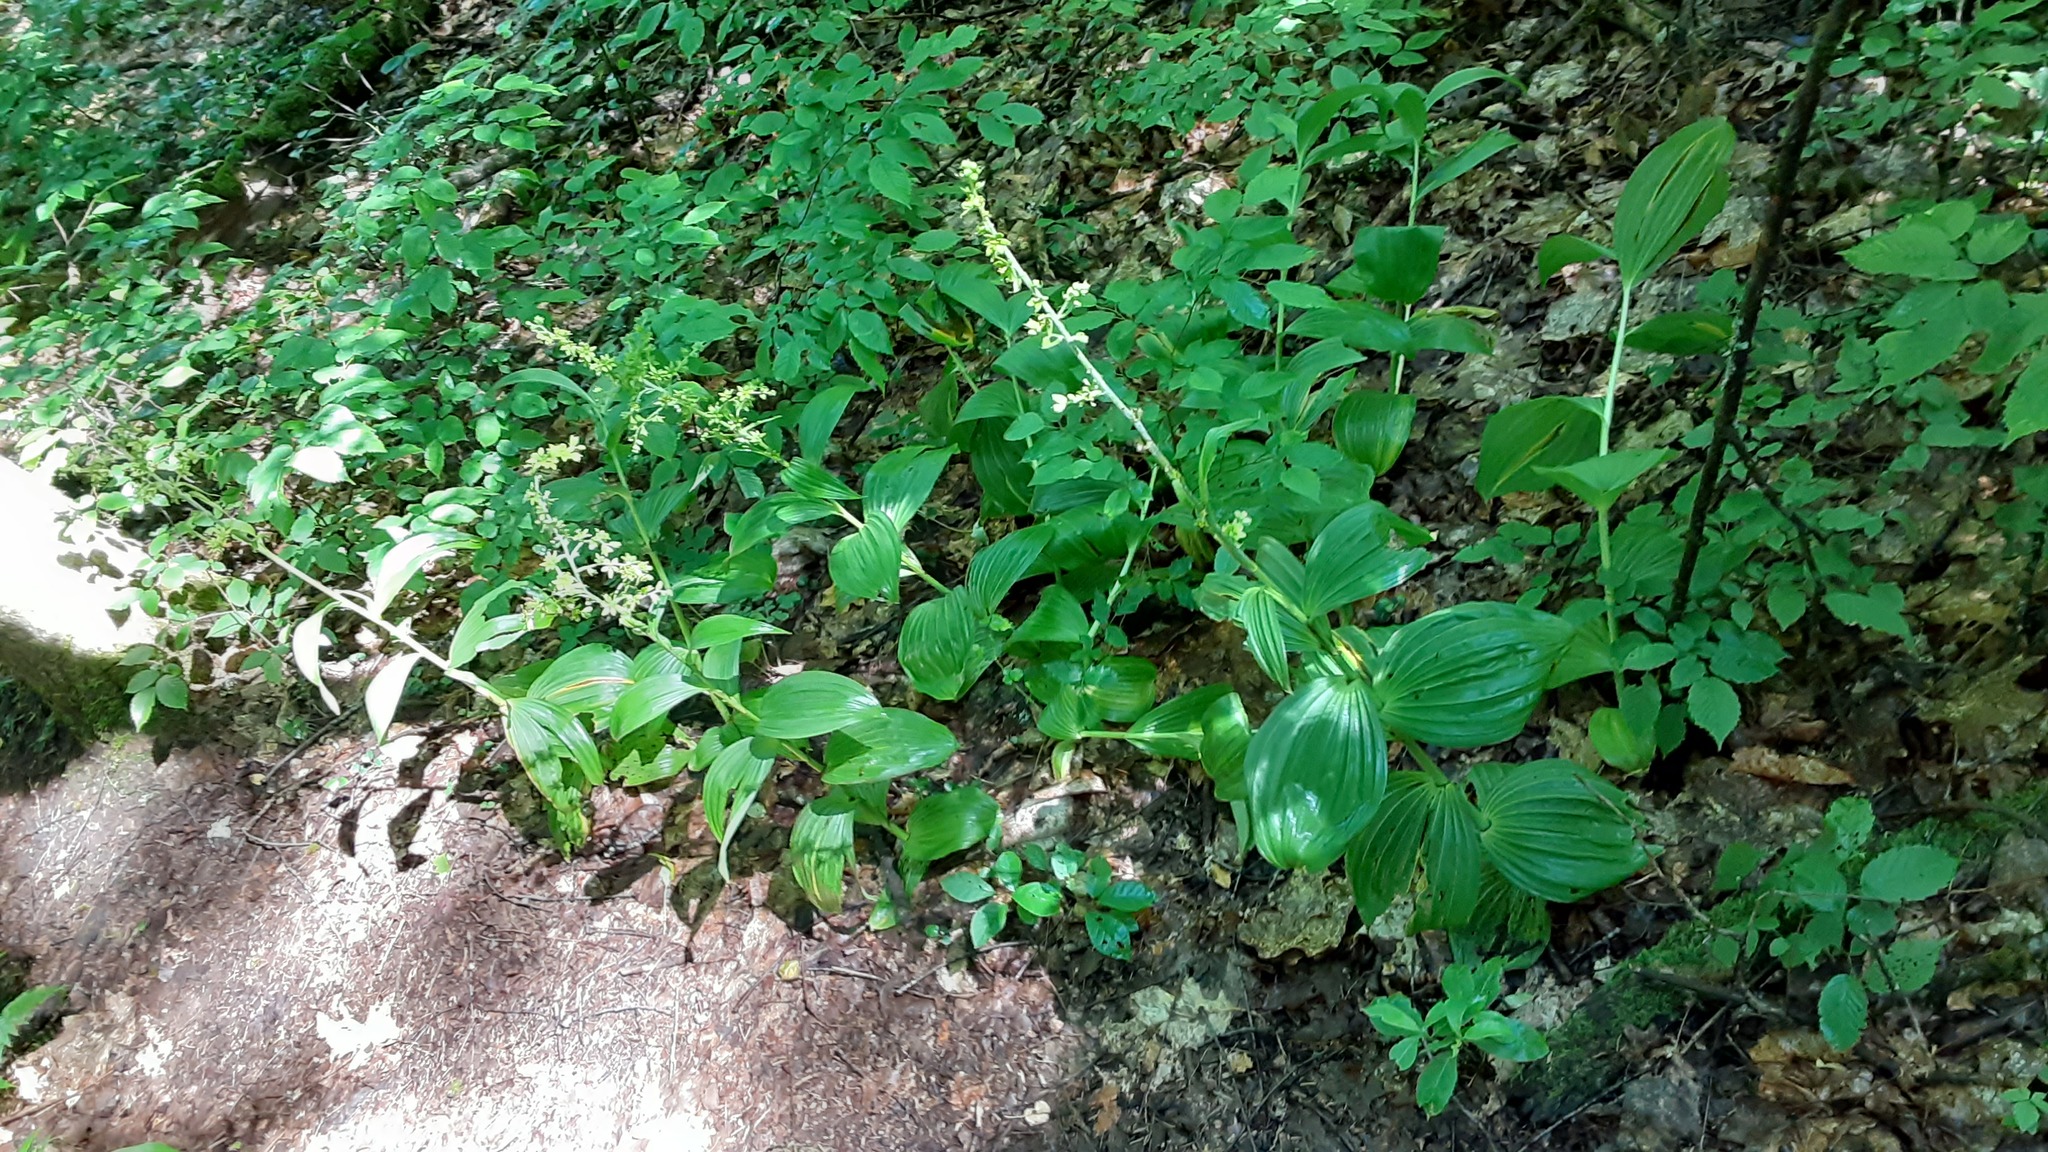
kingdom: Plantae
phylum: Tracheophyta
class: Liliopsida
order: Liliales
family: Melanthiaceae
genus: Veratrum
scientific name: Veratrum viride
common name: American false hellebore
